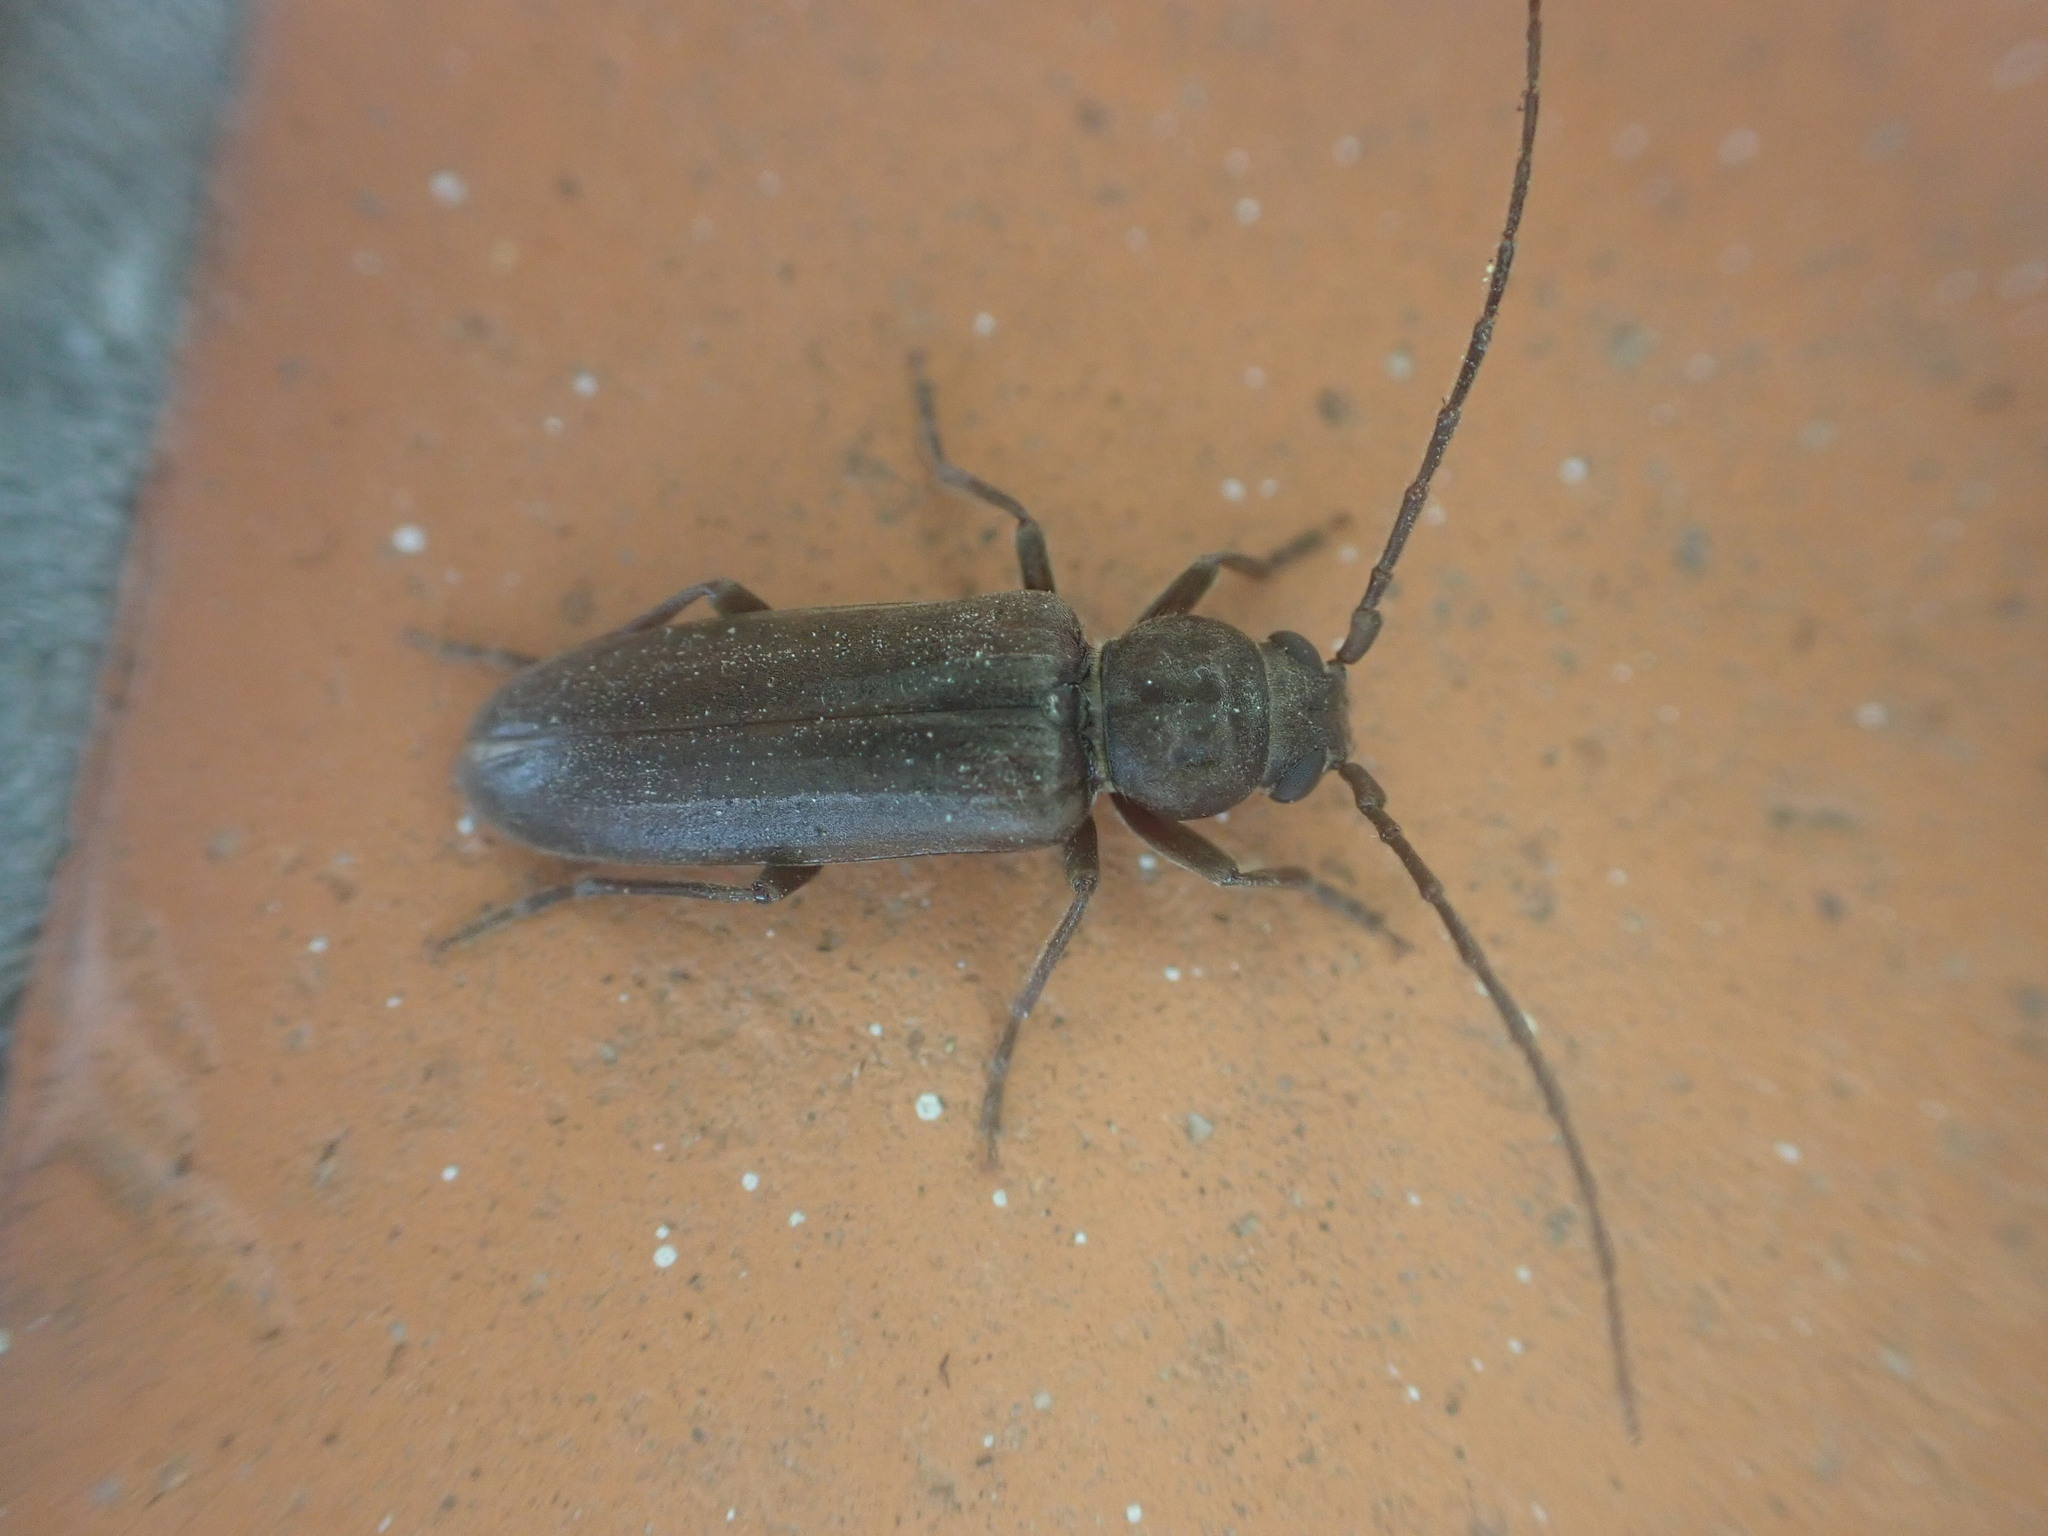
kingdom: Animalia
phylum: Arthropoda
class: Insecta
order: Coleoptera
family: Cerambycidae
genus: Arhopalus
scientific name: Arhopalus ferus
